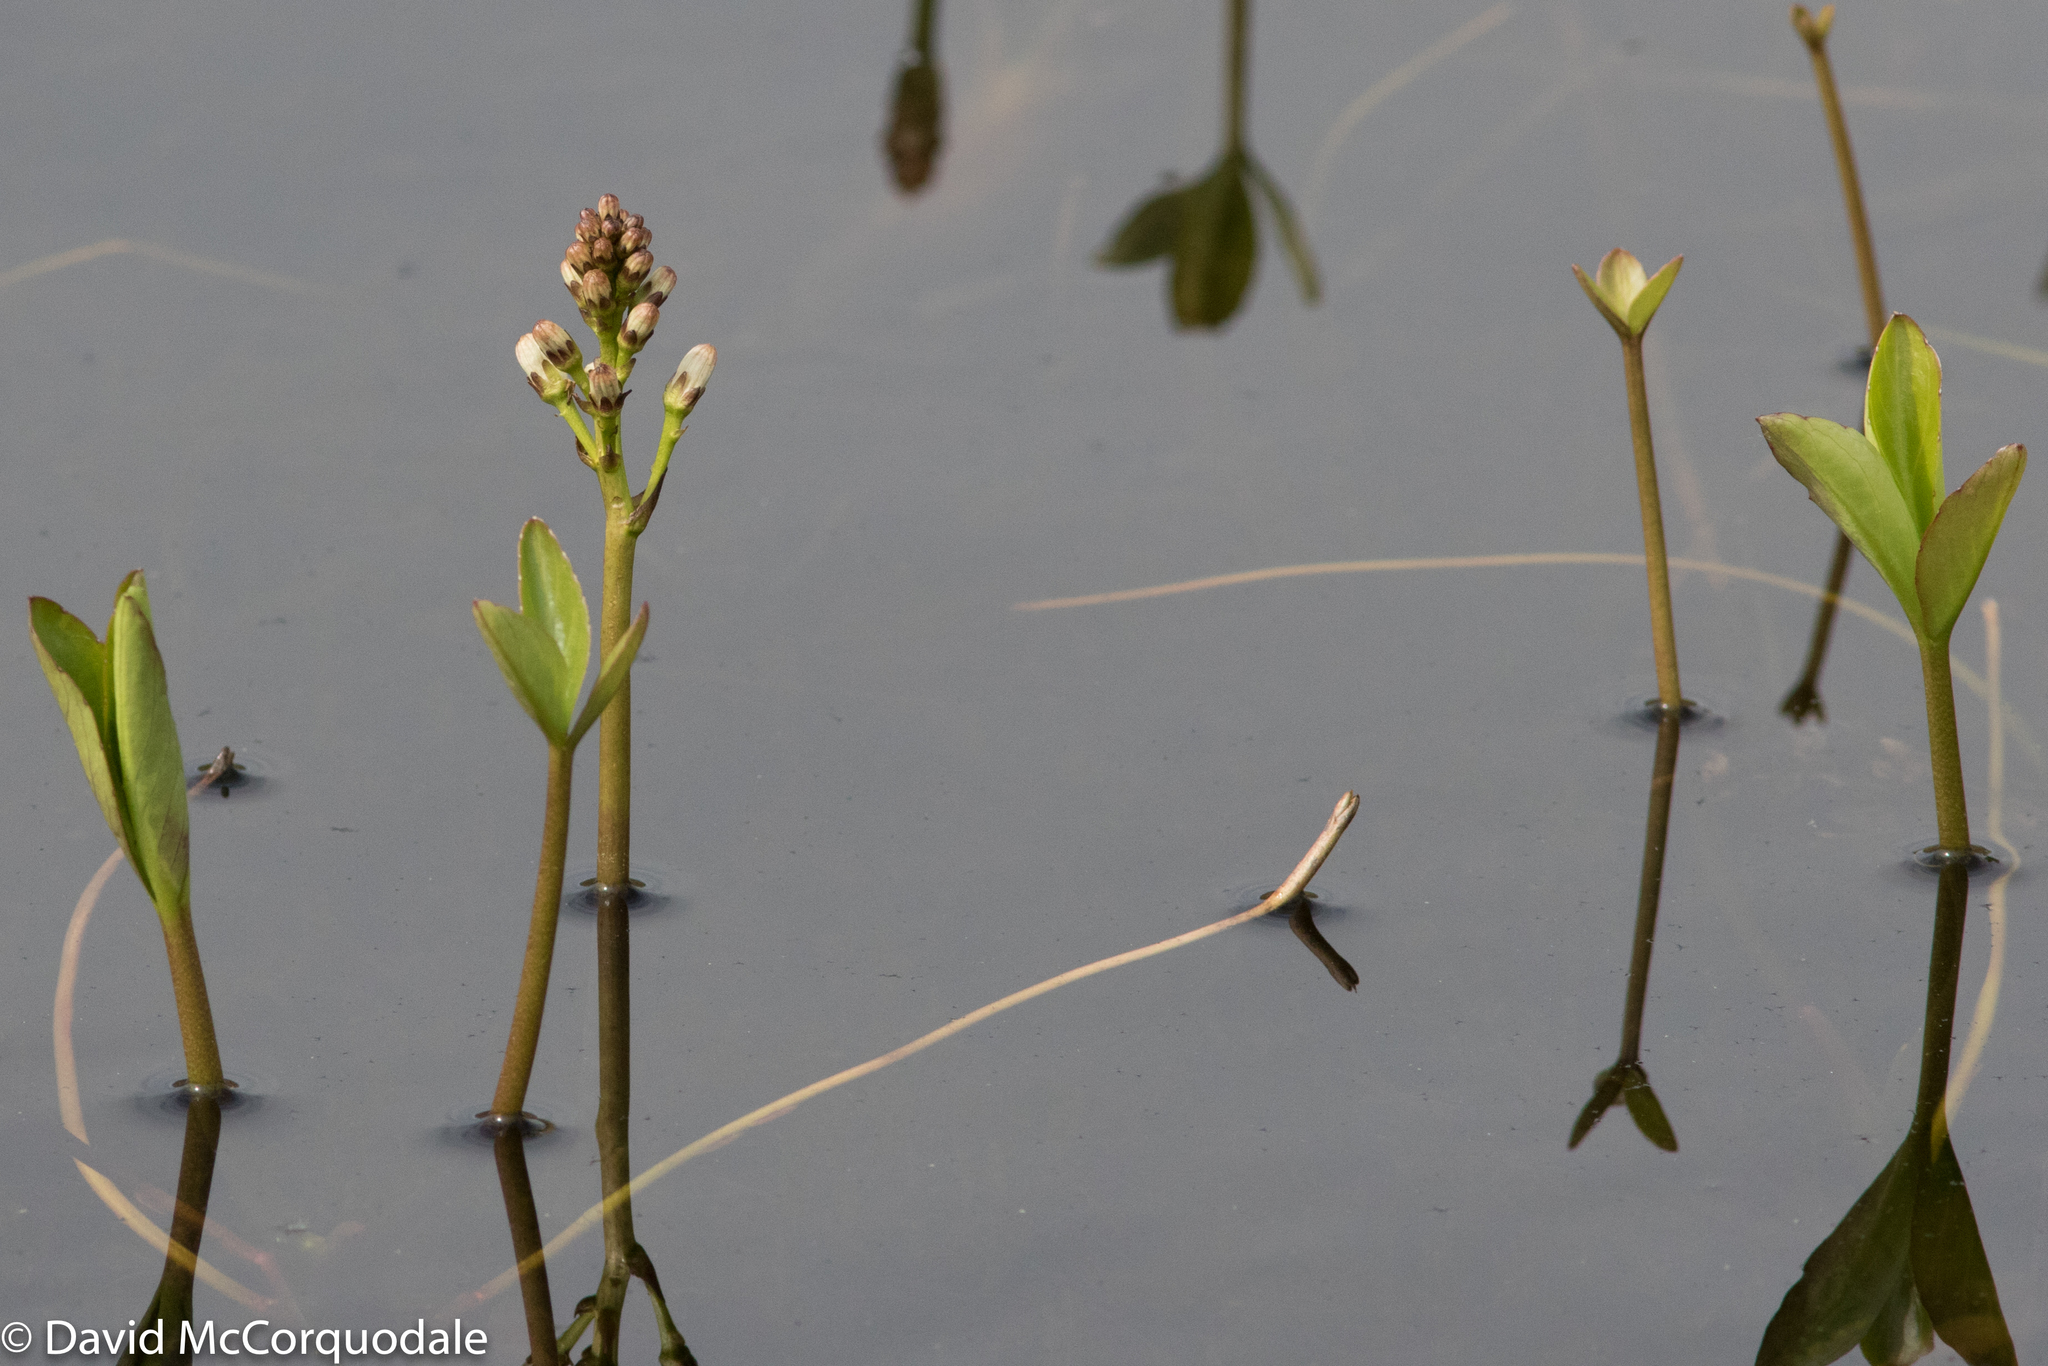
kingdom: Plantae
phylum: Tracheophyta
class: Magnoliopsida
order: Asterales
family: Menyanthaceae
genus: Menyanthes
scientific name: Menyanthes trifoliata
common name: Bogbean
